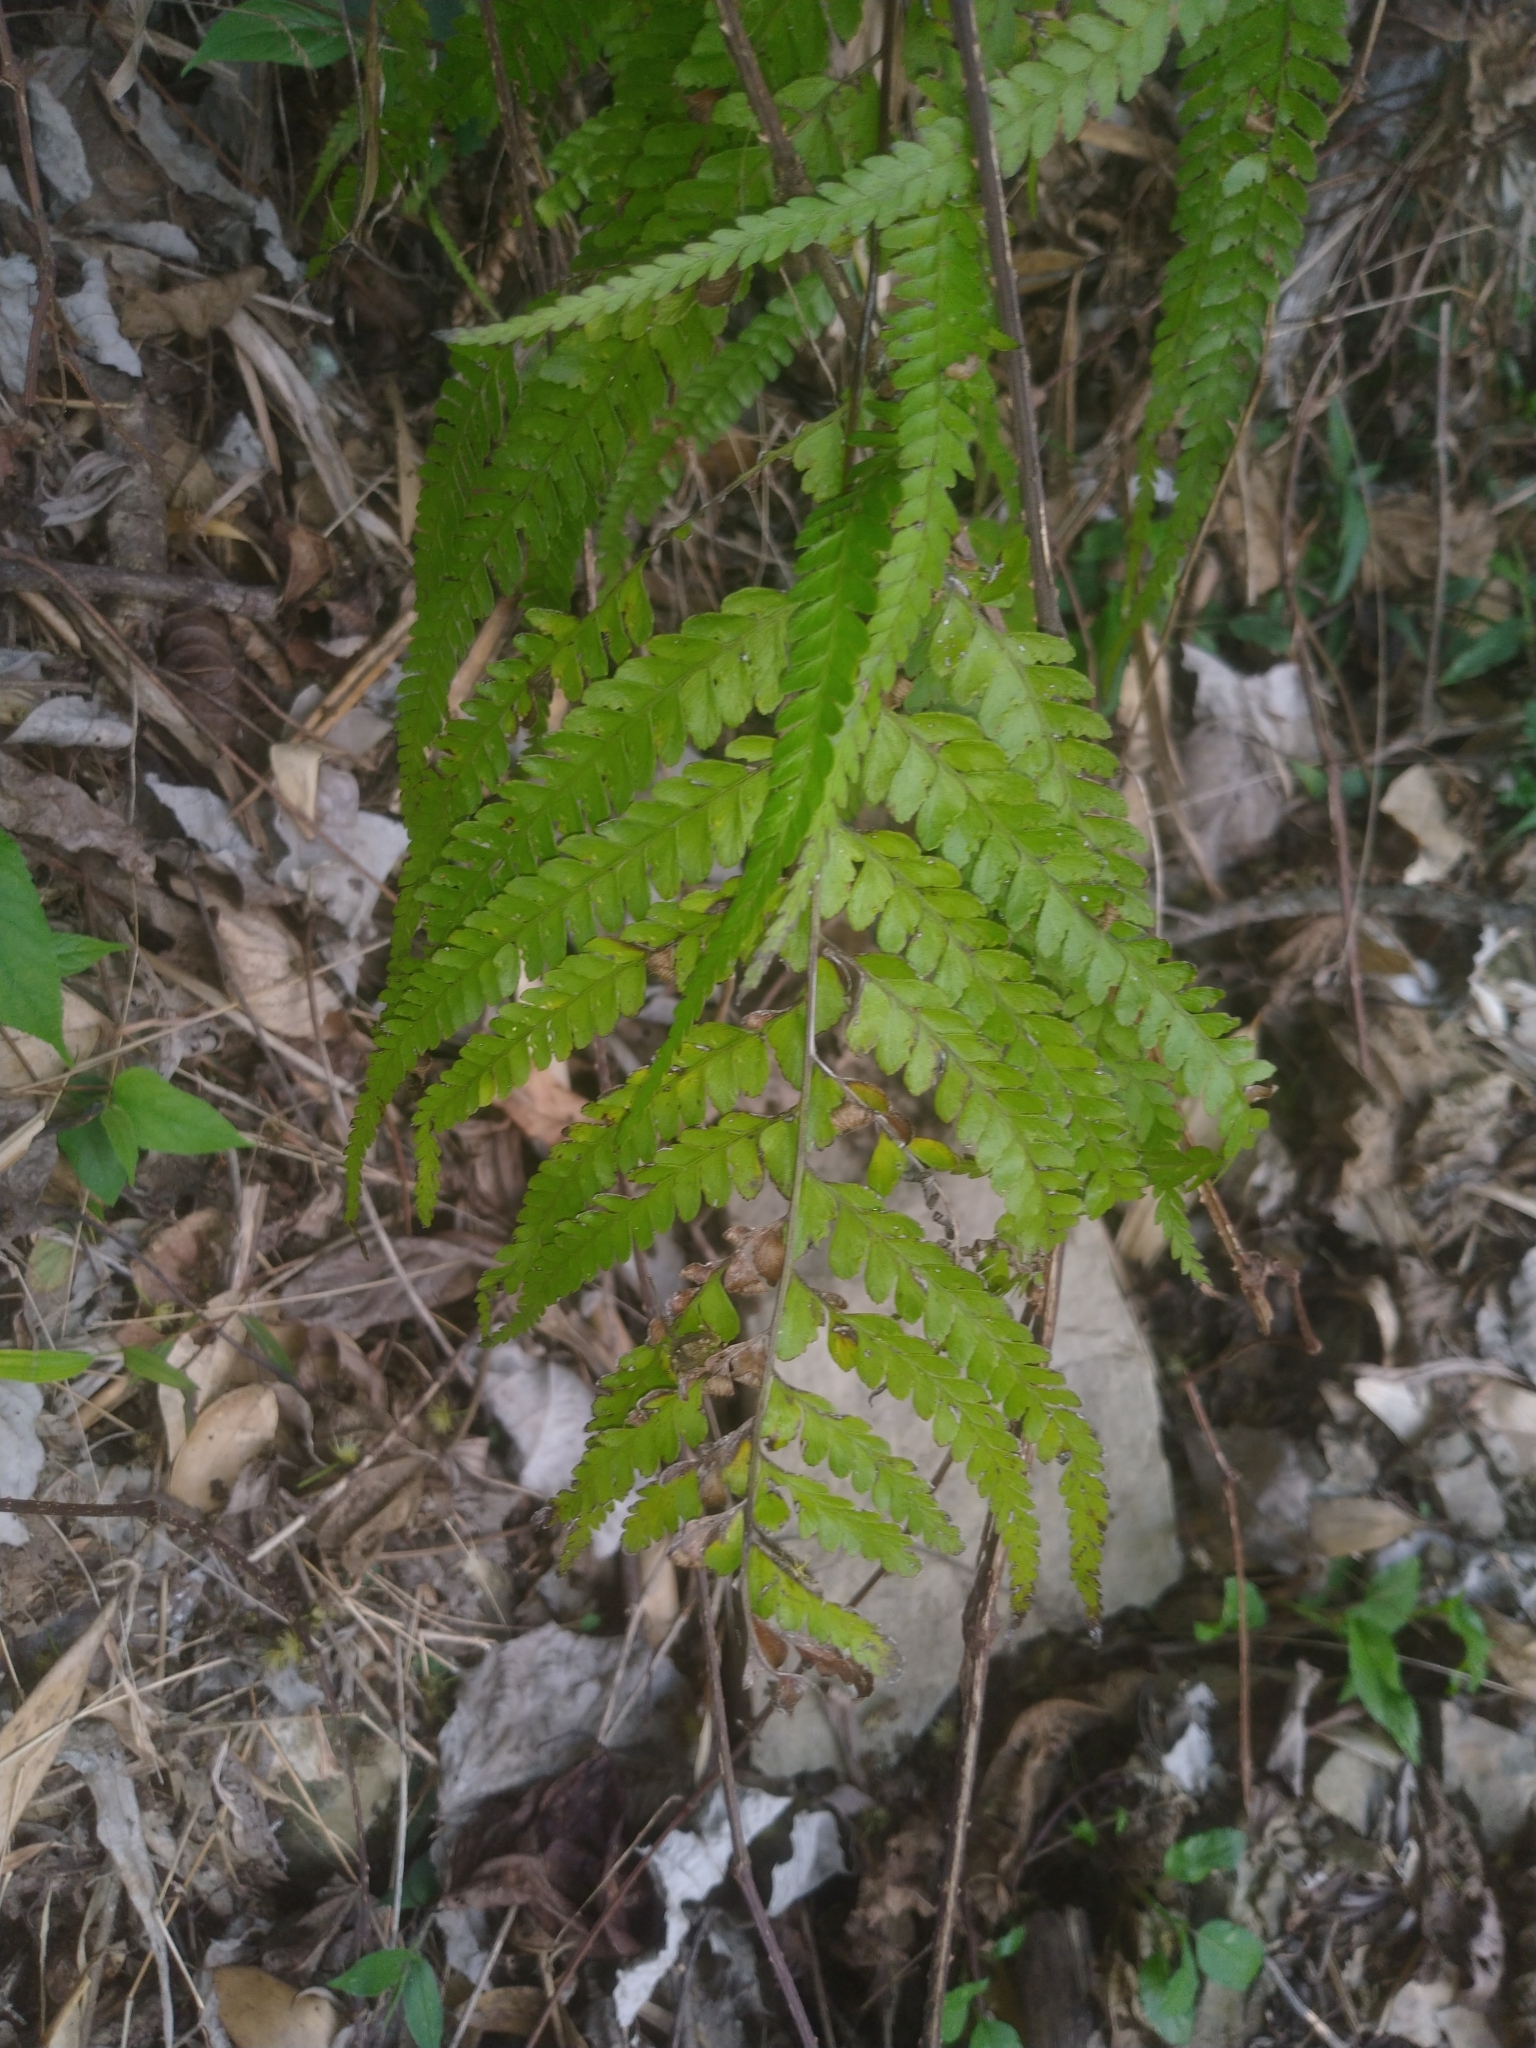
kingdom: Plantae
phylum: Tracheophyta
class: Polypodiopsida
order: Polypodiales
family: Dennstaedtiaceae
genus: Microlepia
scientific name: Microlepia strigosa
